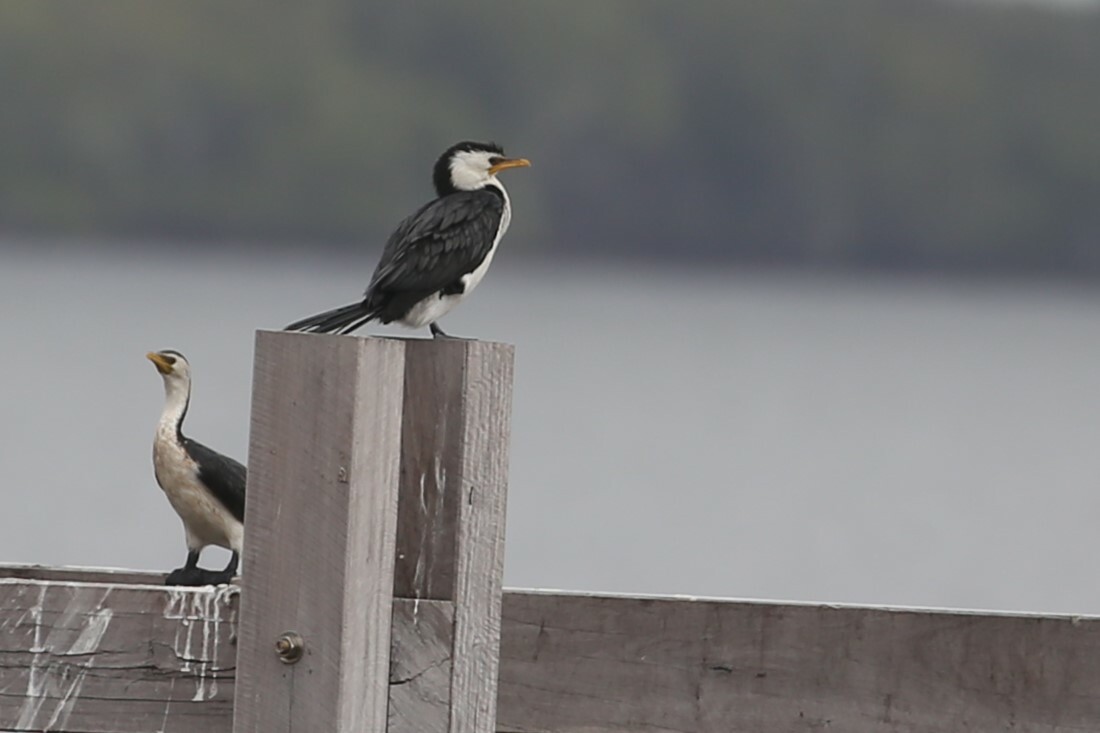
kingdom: Animalia
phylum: Chordata
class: Aves
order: Suliformes
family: Phalacrocoracidae
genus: Microcarbo
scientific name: Microcarbo melanoleucos
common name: Little pied cormorant
